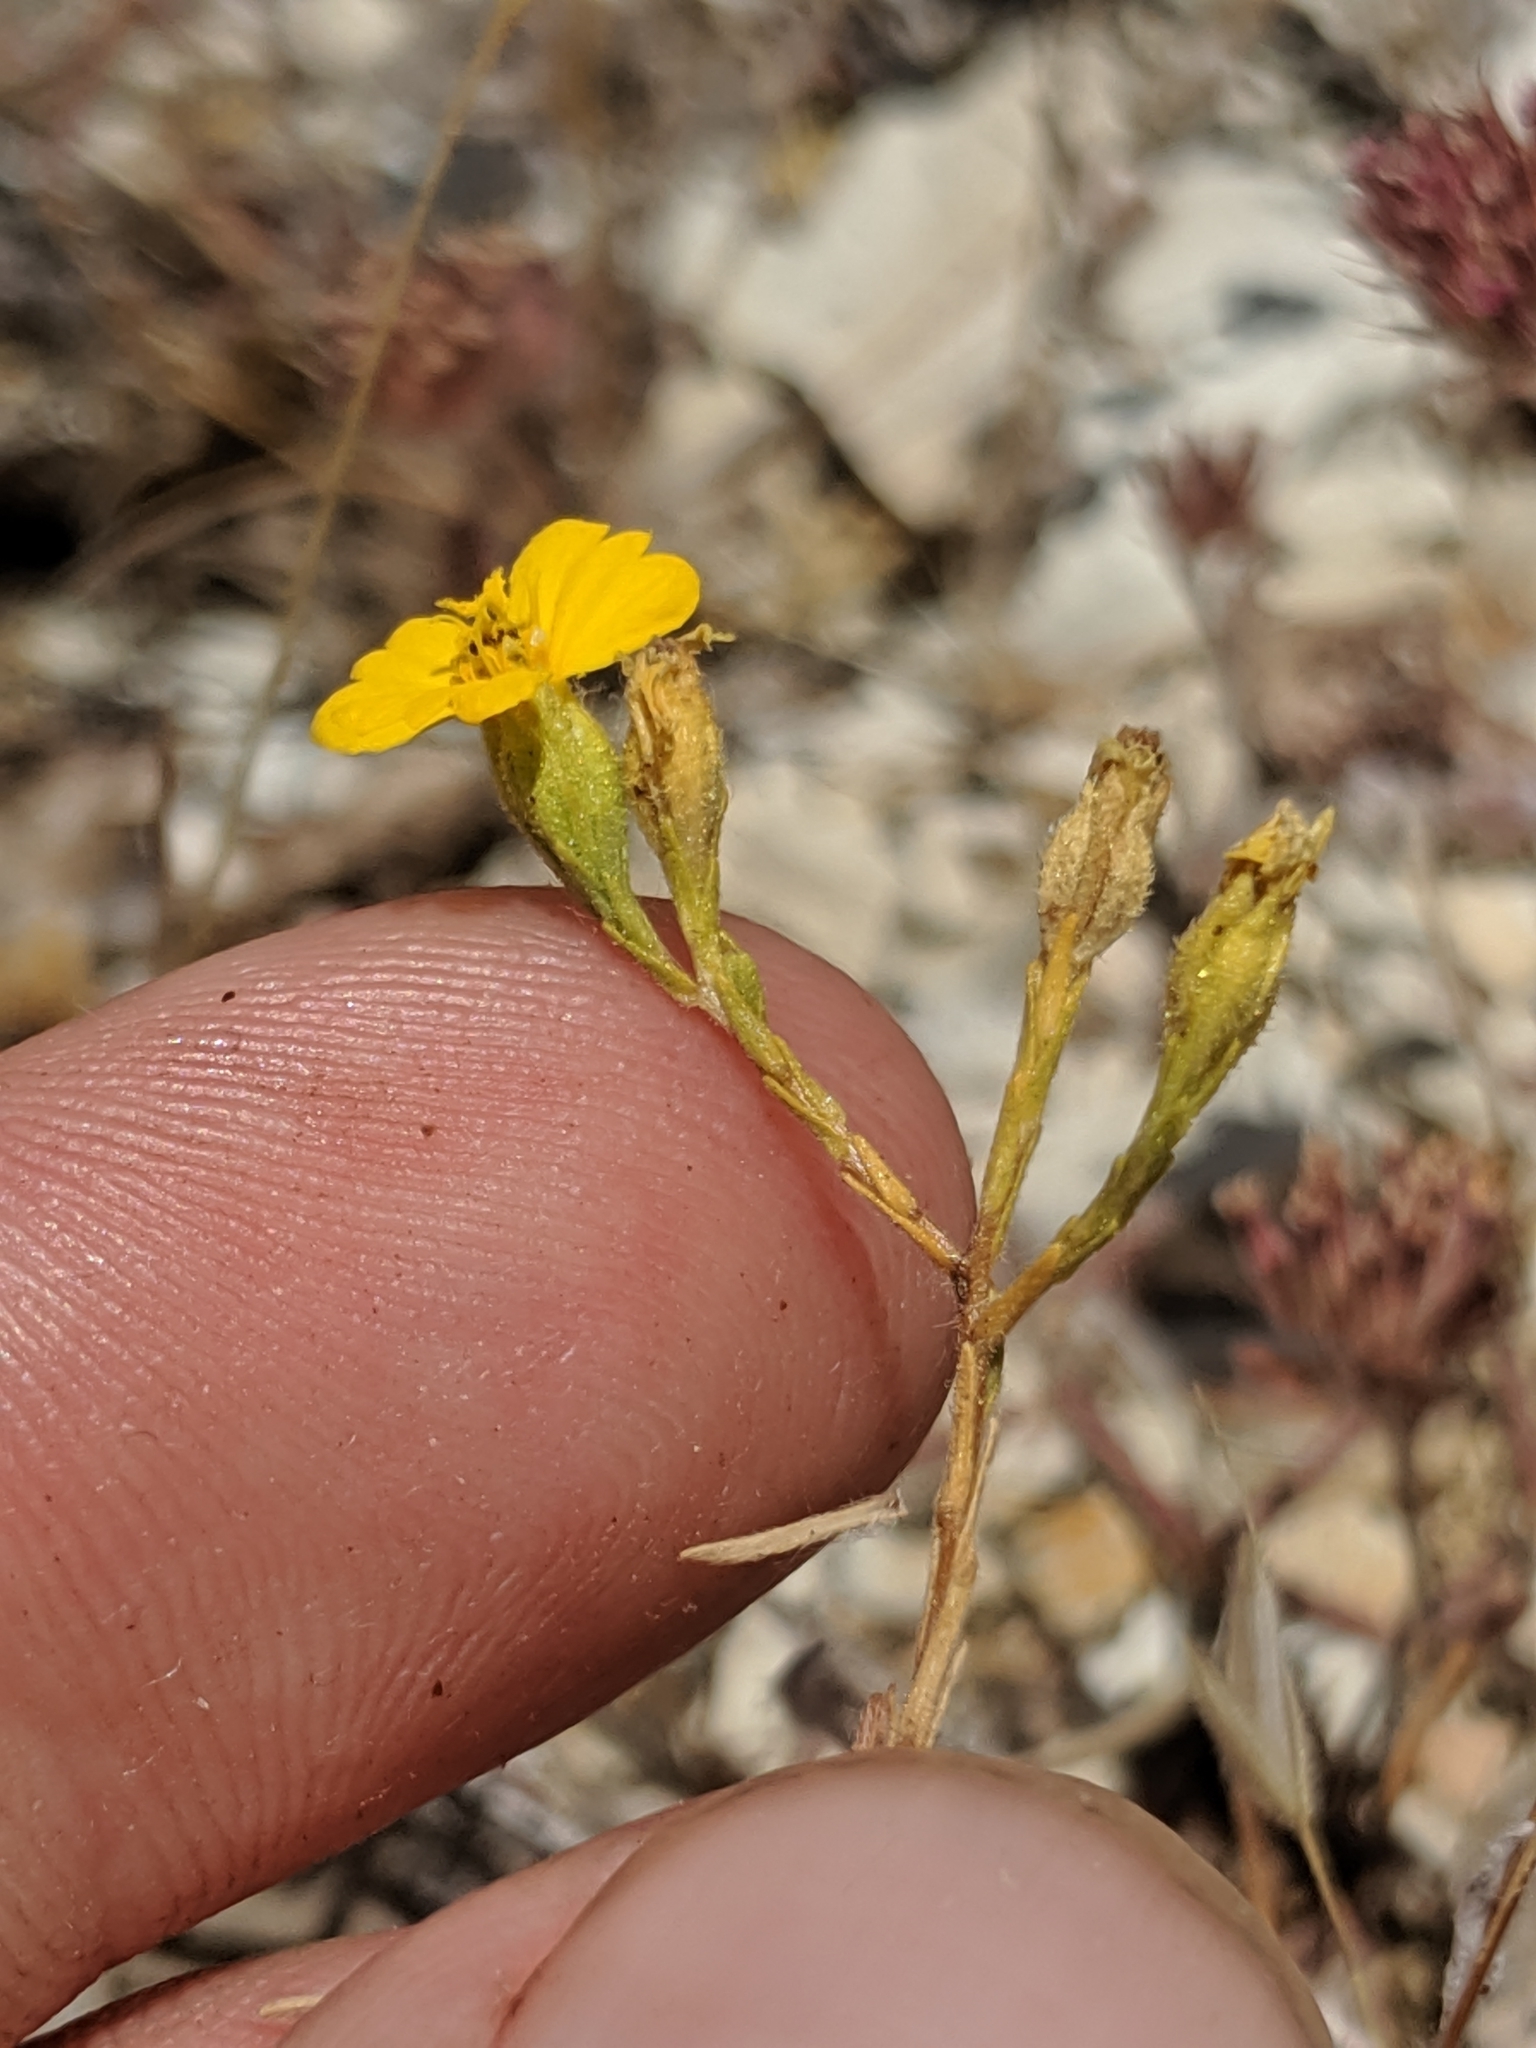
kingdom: Plantae
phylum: Tracheophyta
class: Magnoliopsida
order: Asterales
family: Asteraceae
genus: Deinandra
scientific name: Deinandra lobbii
